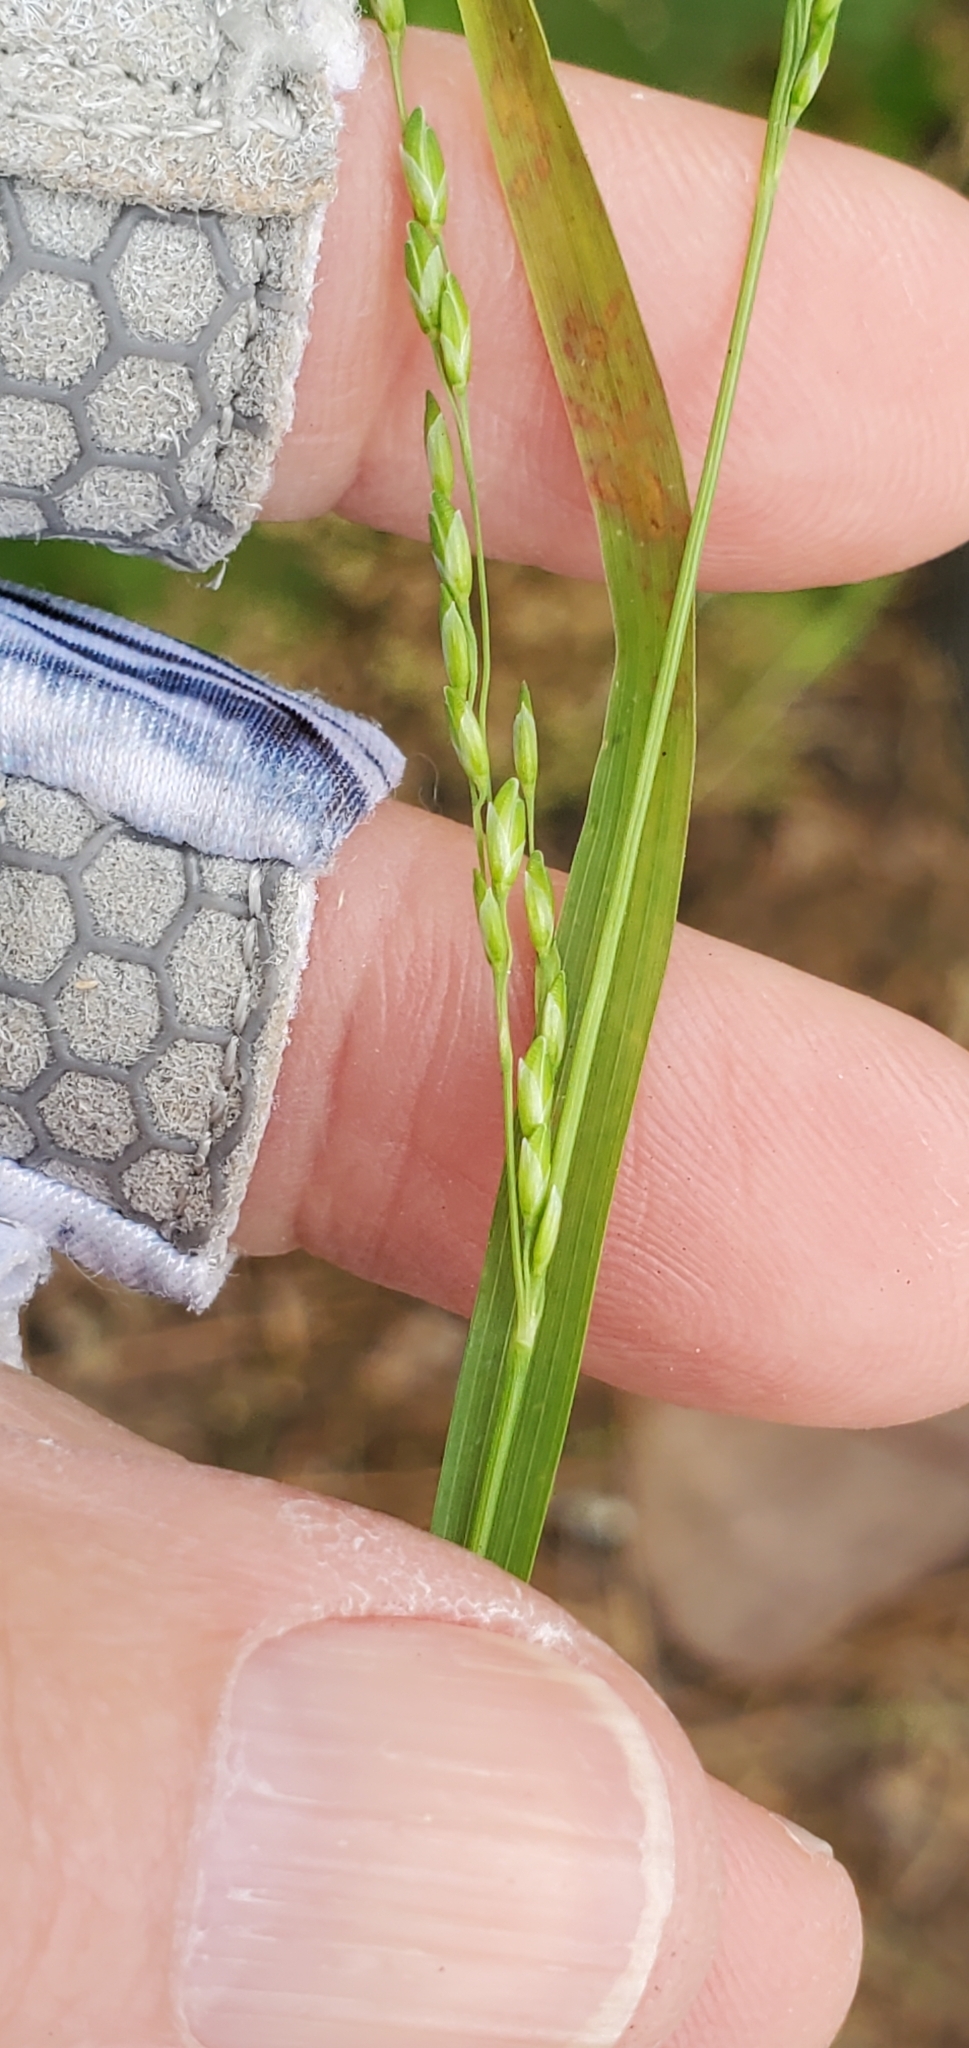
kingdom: Plantae
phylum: Tracheophyta
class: Liliopsida
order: Poales
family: Poaceae
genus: Ehrharta
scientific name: Ehrharta erecta
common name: Panic veldtgrass
